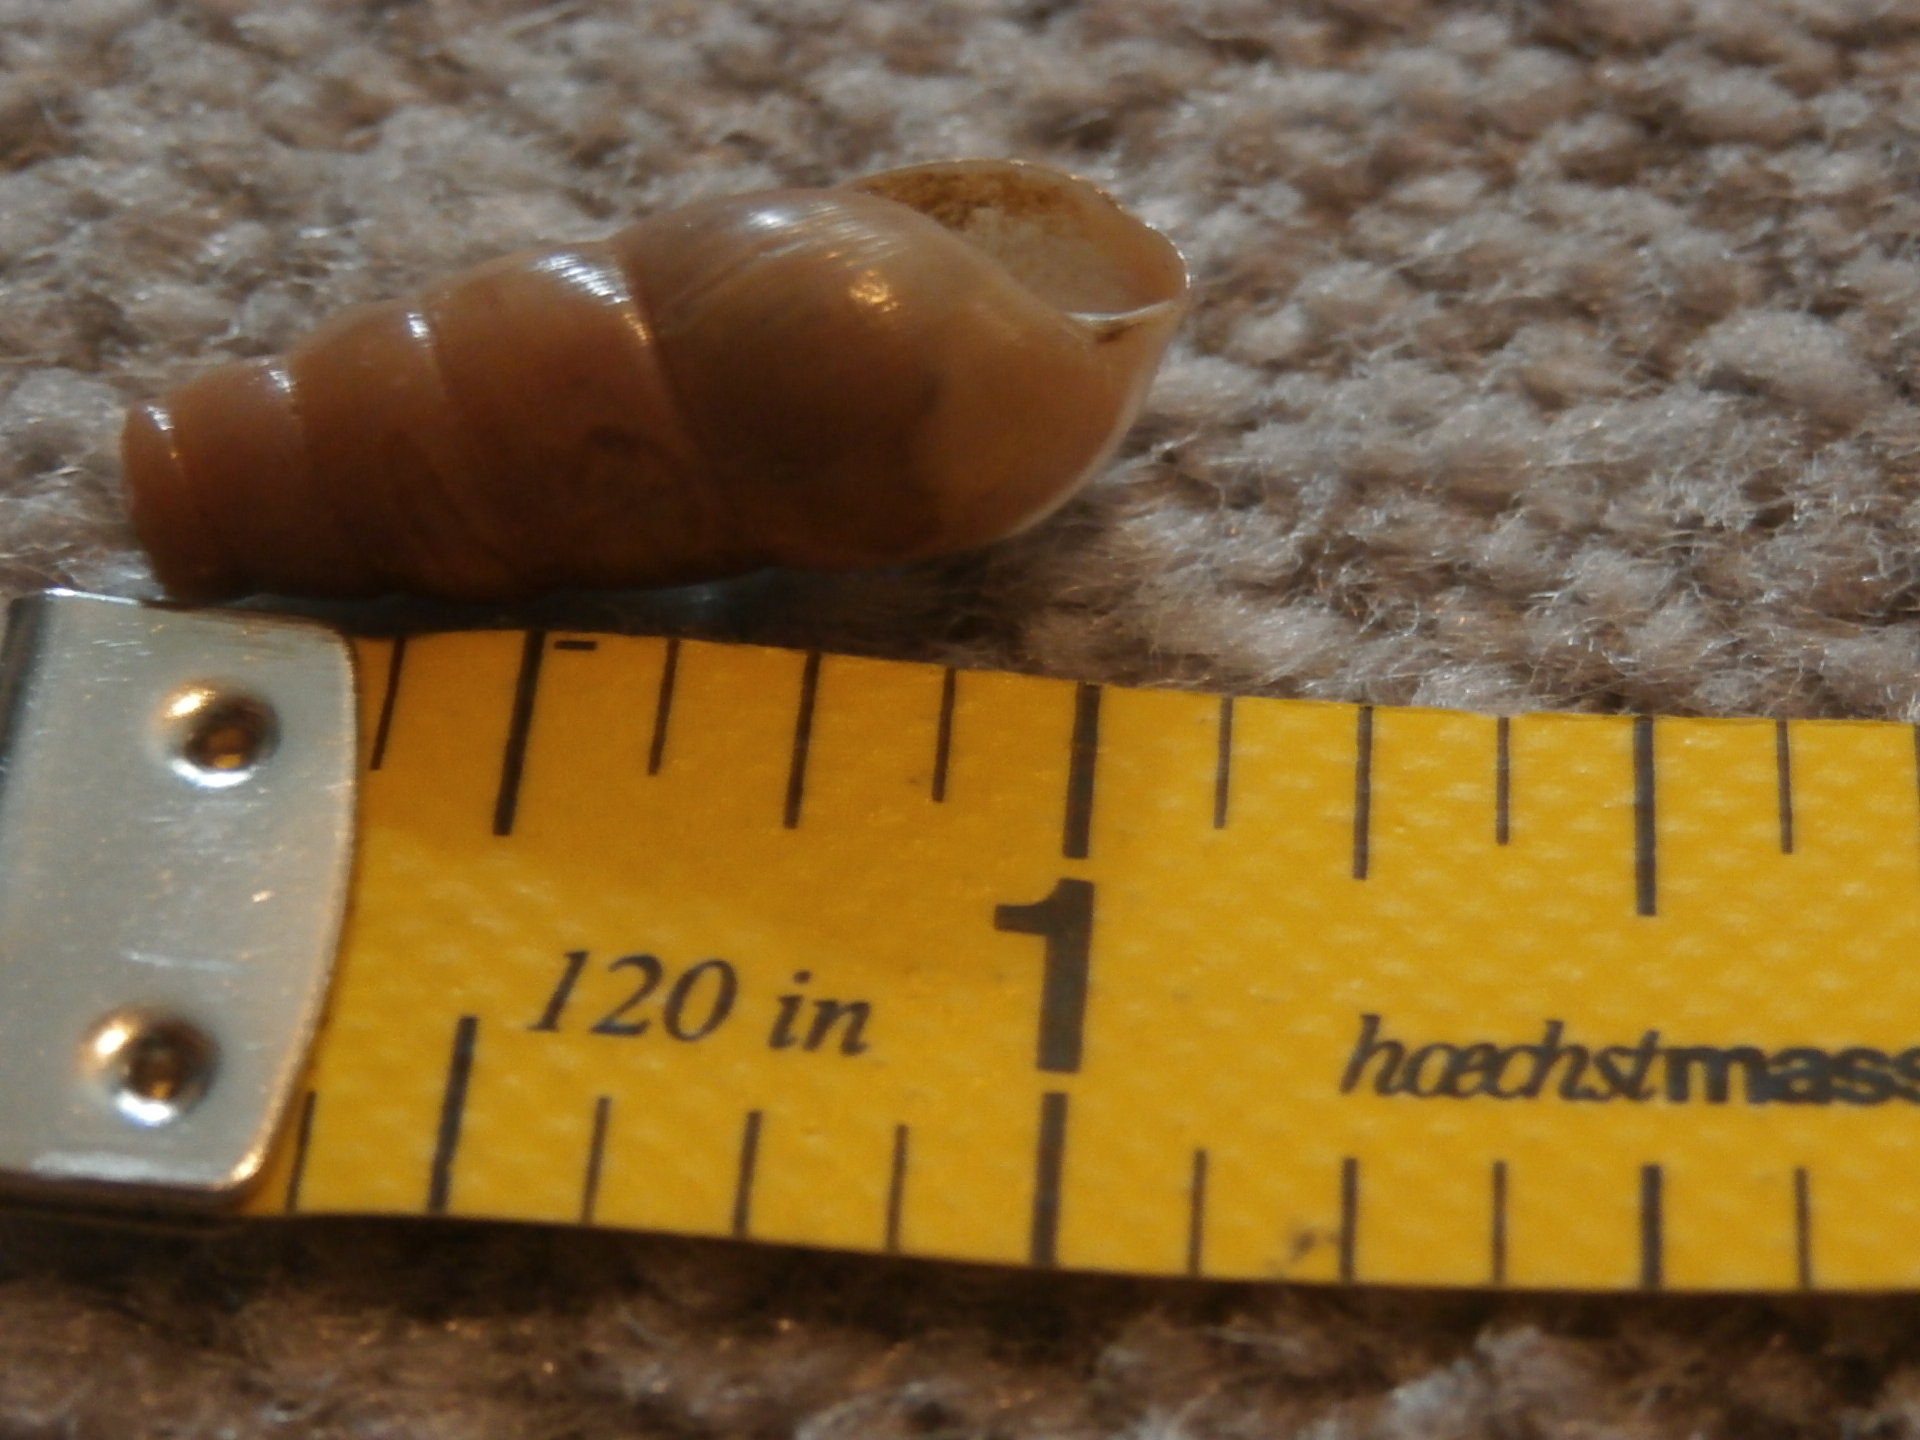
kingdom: Animalia
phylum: Mollusca
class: Gastropoda
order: Stylommatophora
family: Achatinidae
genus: Rumina
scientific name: Rumina decollata
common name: Decollate snail
